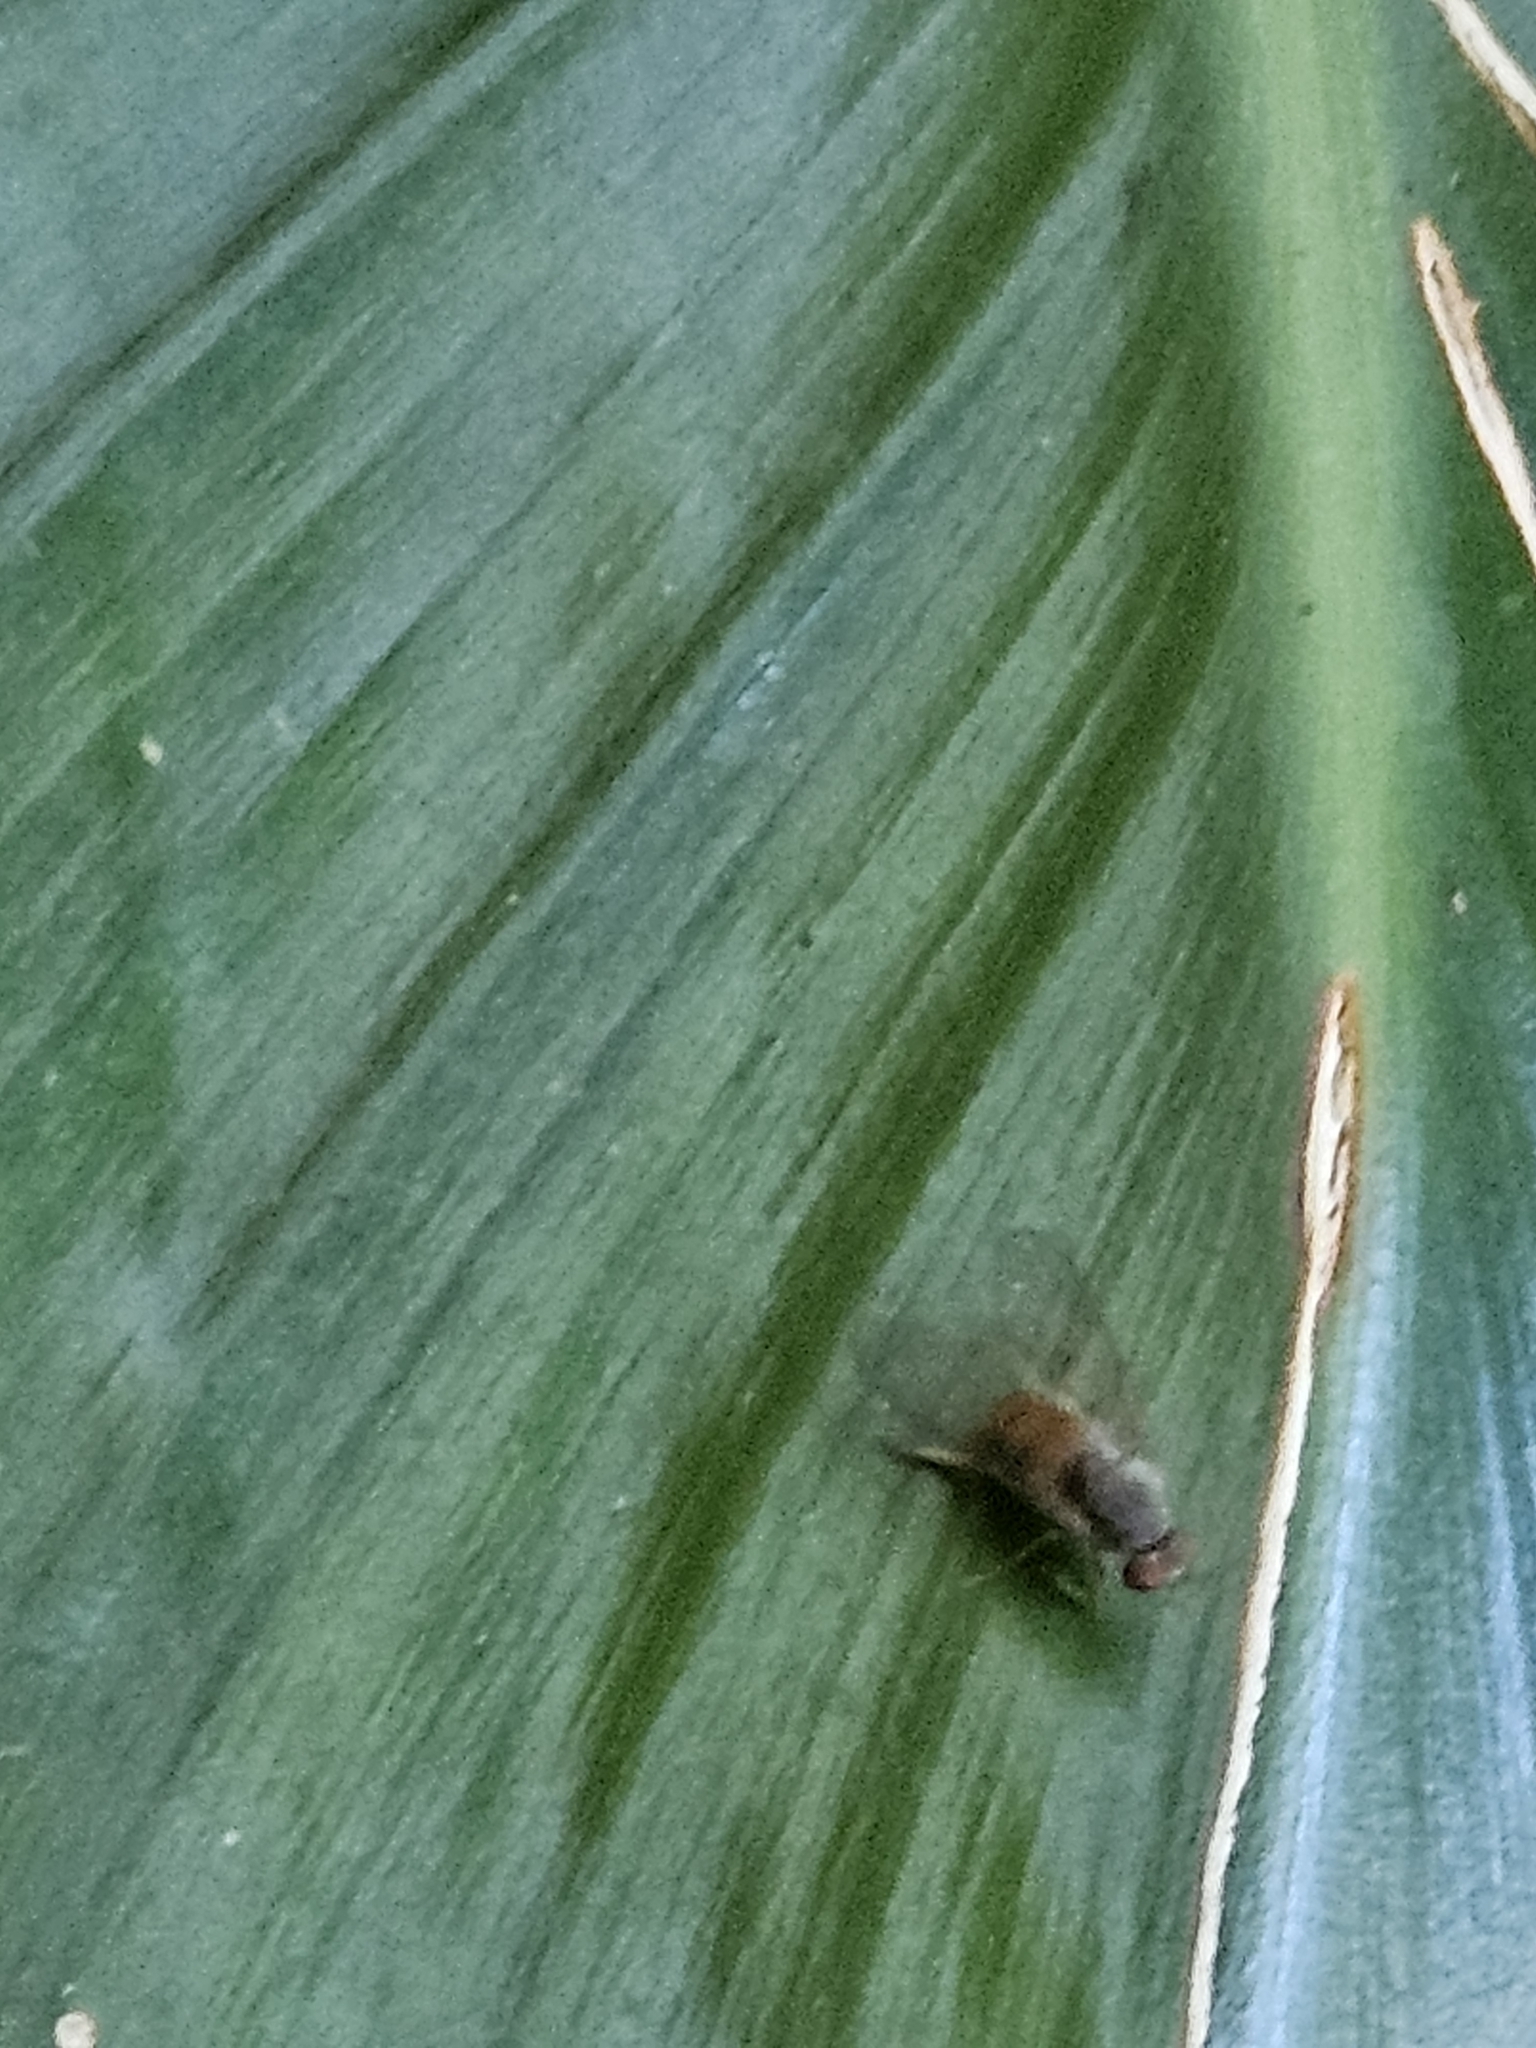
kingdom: Animalia
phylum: Arthropoda
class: Insecta
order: Diptera
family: Platypezidae
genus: Calotarsa
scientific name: Calotarsa insignis
